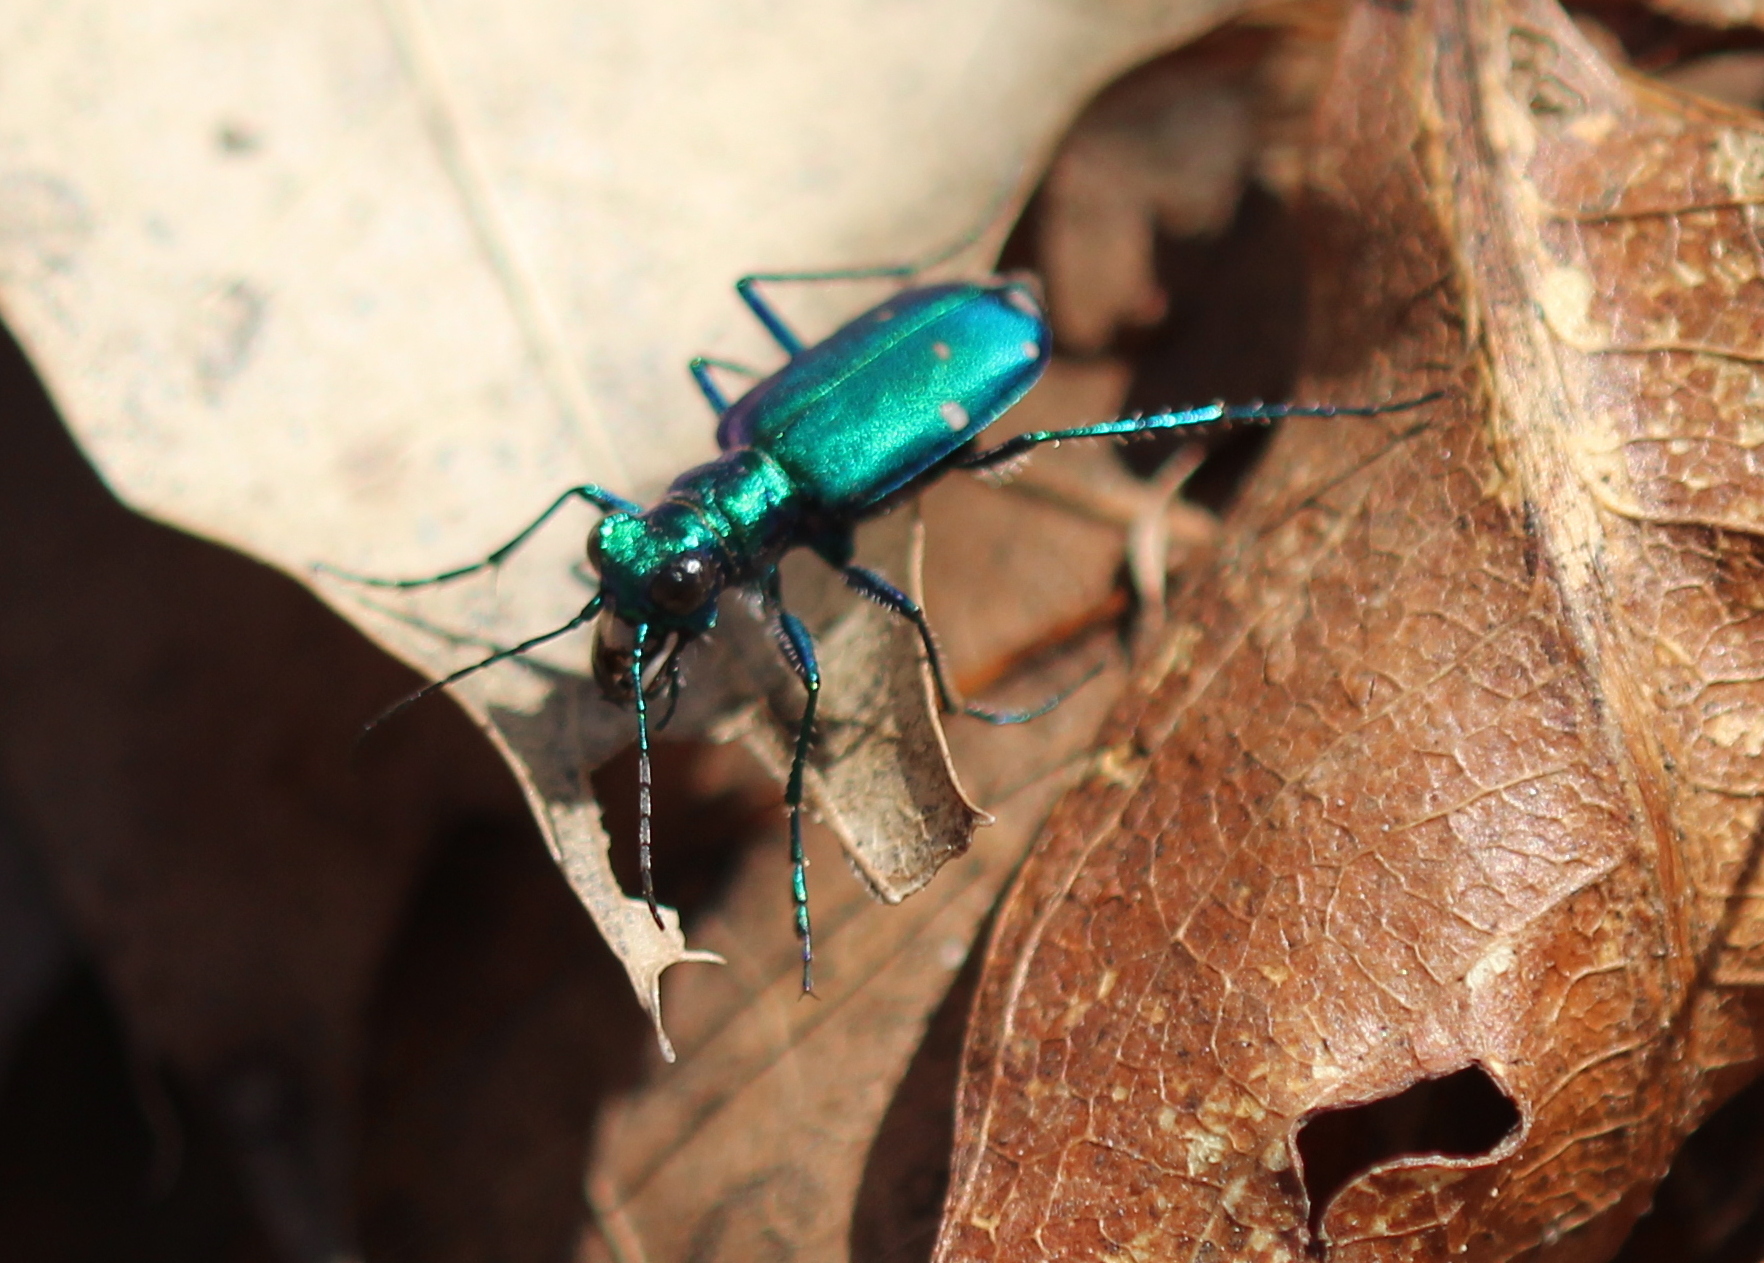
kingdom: Animalia
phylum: Arthropoda
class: Insecta
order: Coleoptera
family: Carabidae
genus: Cicindela
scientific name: Cicindela sexguttata
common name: Six-spotted tiger beetle
